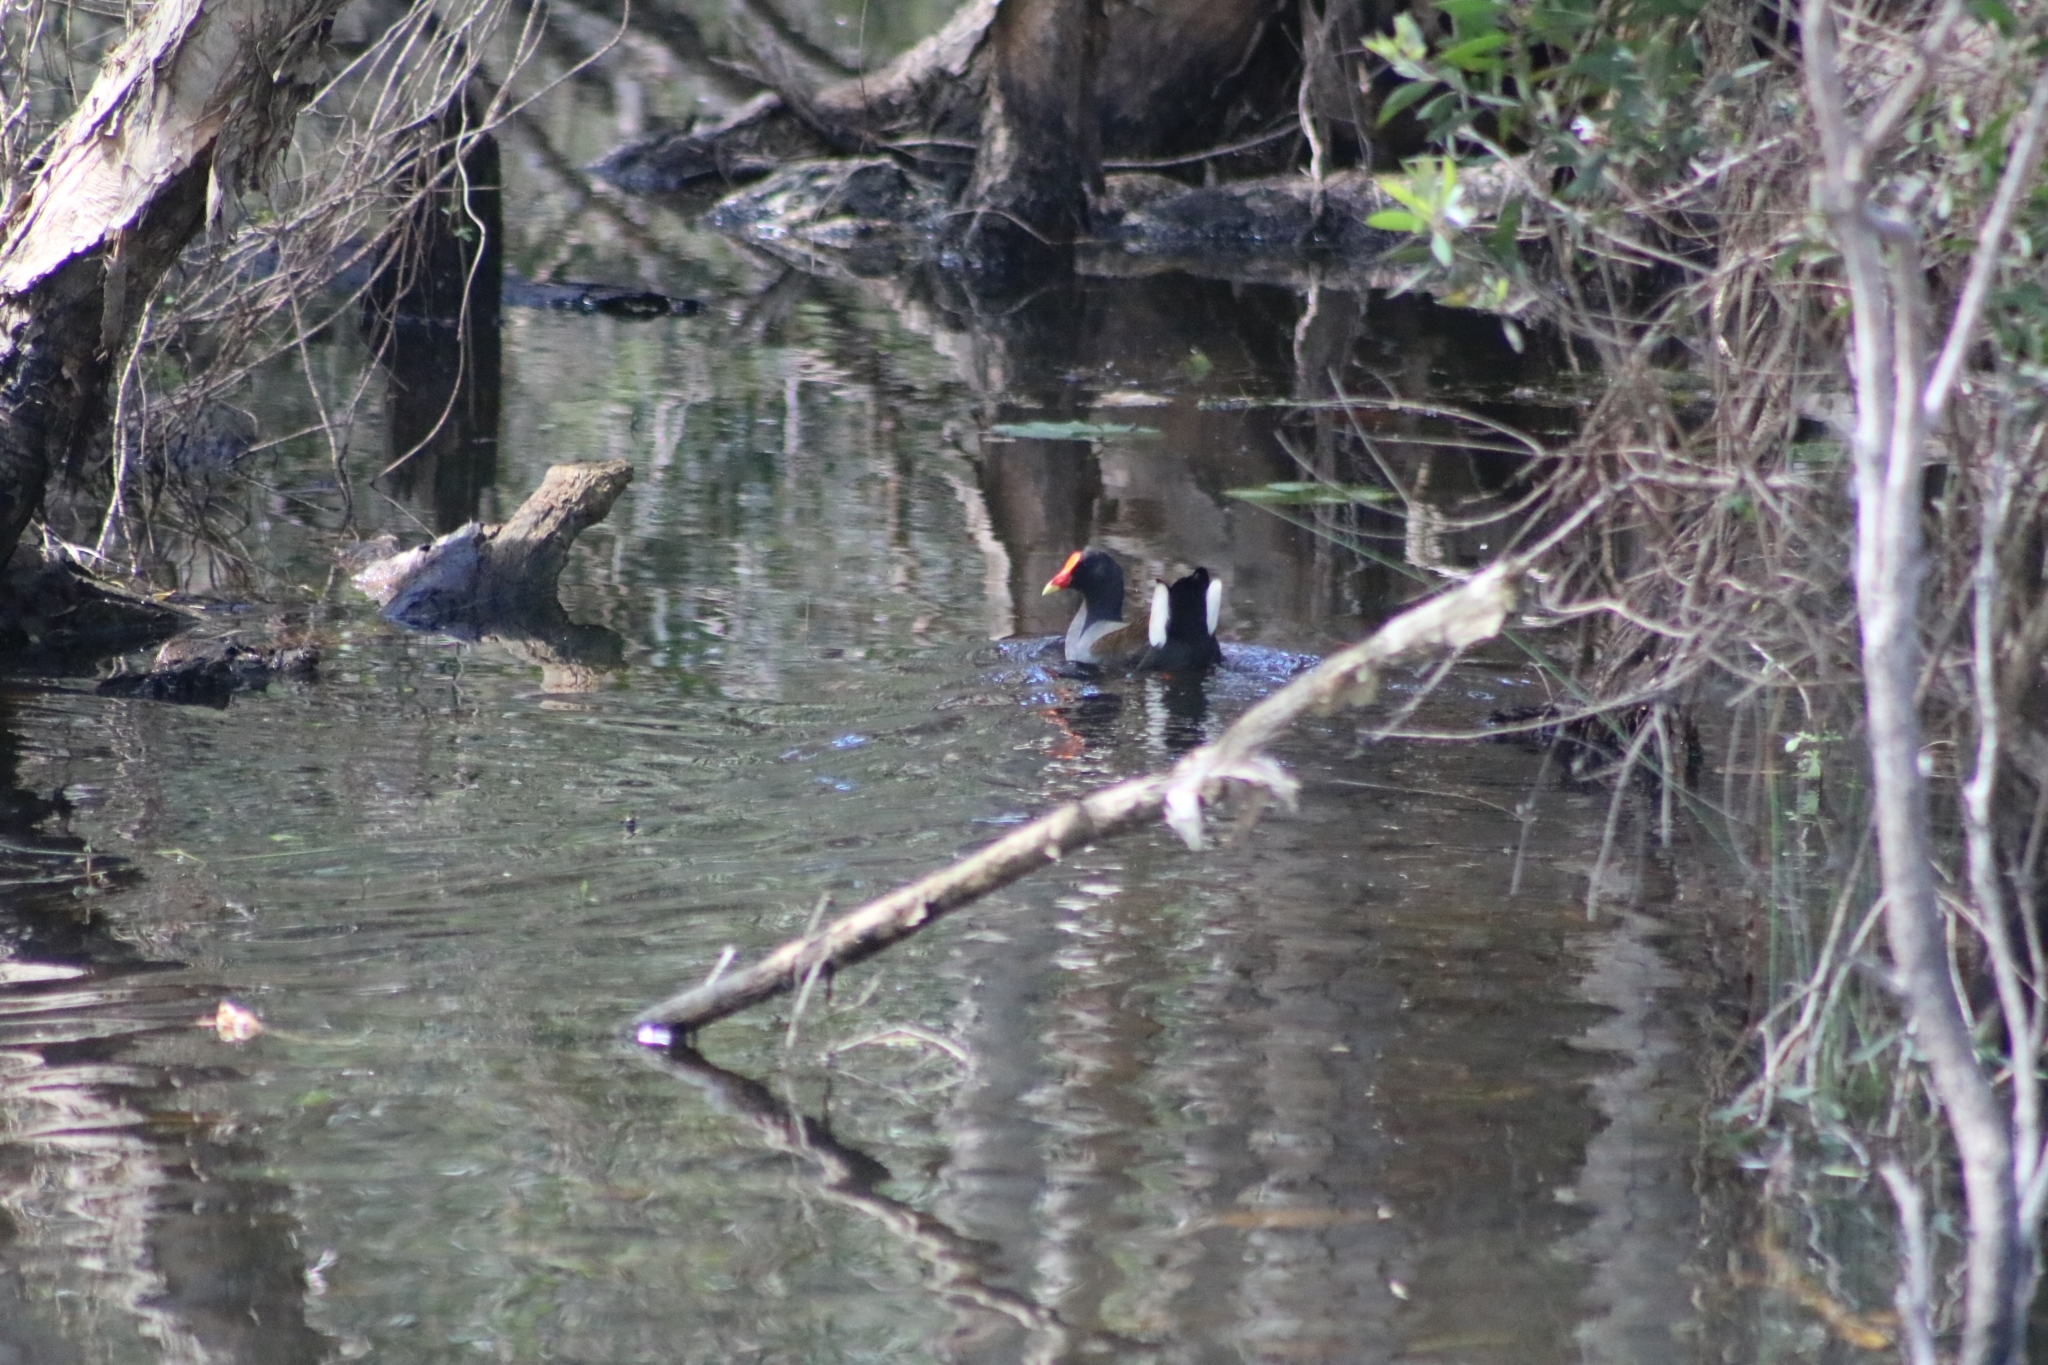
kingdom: Animalia
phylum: Chordata
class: Aves
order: Gruiformes
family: Rallidae
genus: Gallinula
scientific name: Gallinula tenebrosa
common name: Dusky moorhen
